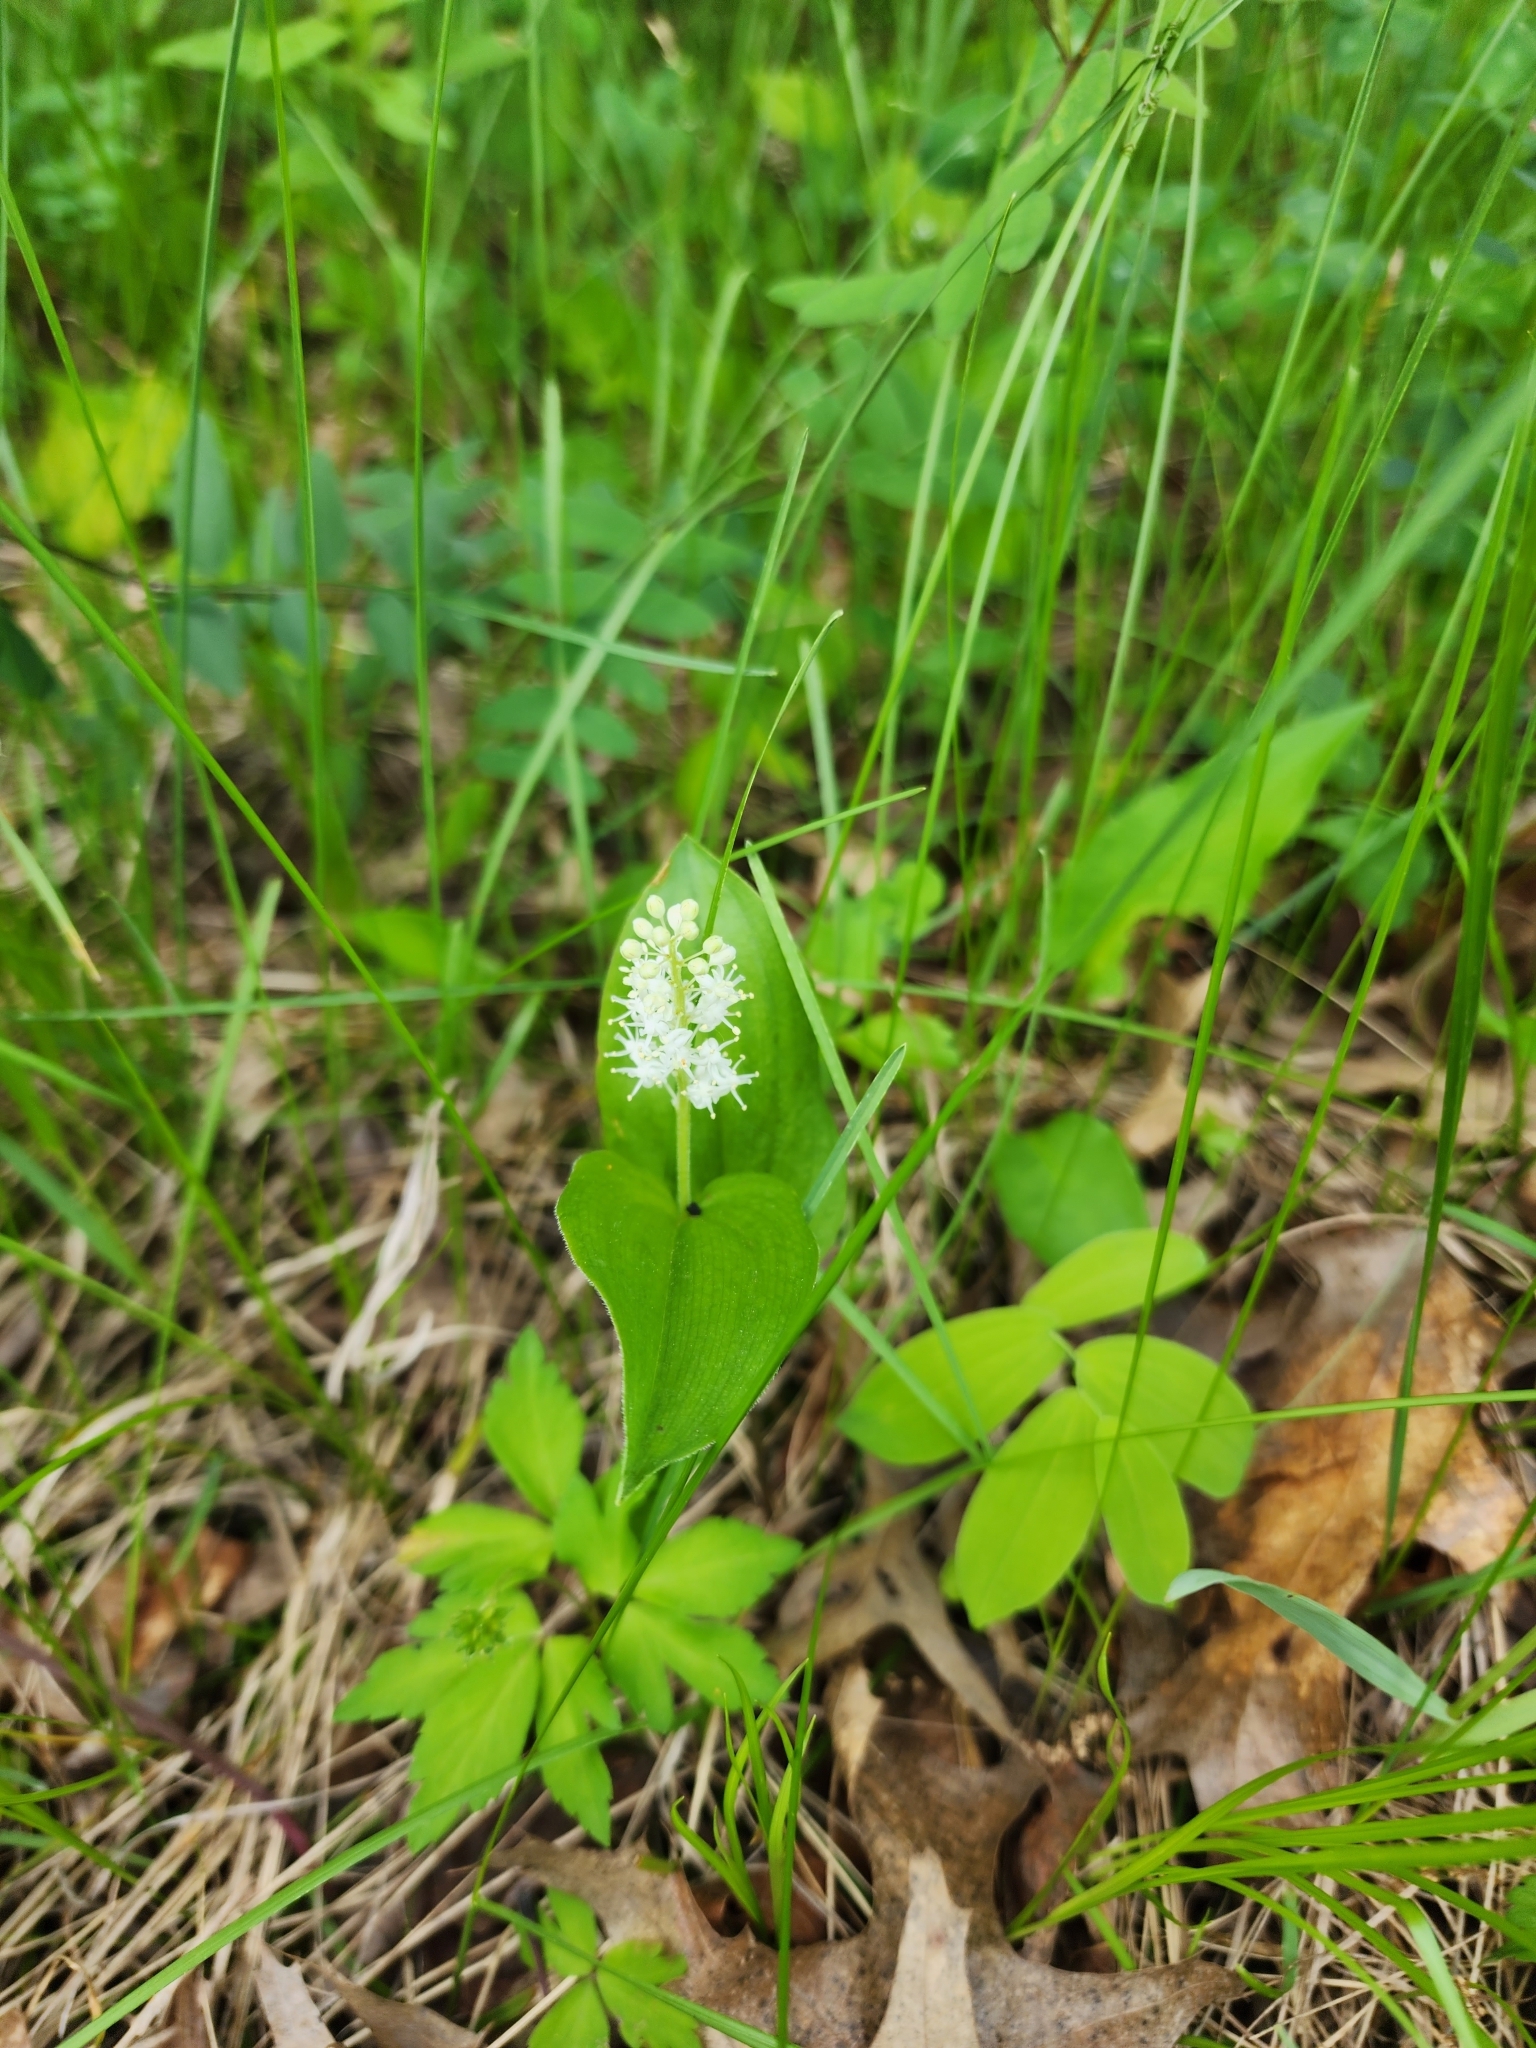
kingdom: Plantae
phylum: Tracheophyta
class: Liliopsida
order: Asparagales
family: Asparagaceae
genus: Maianthemum
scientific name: Maianthemum canadense
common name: False lily-of-the-valley
